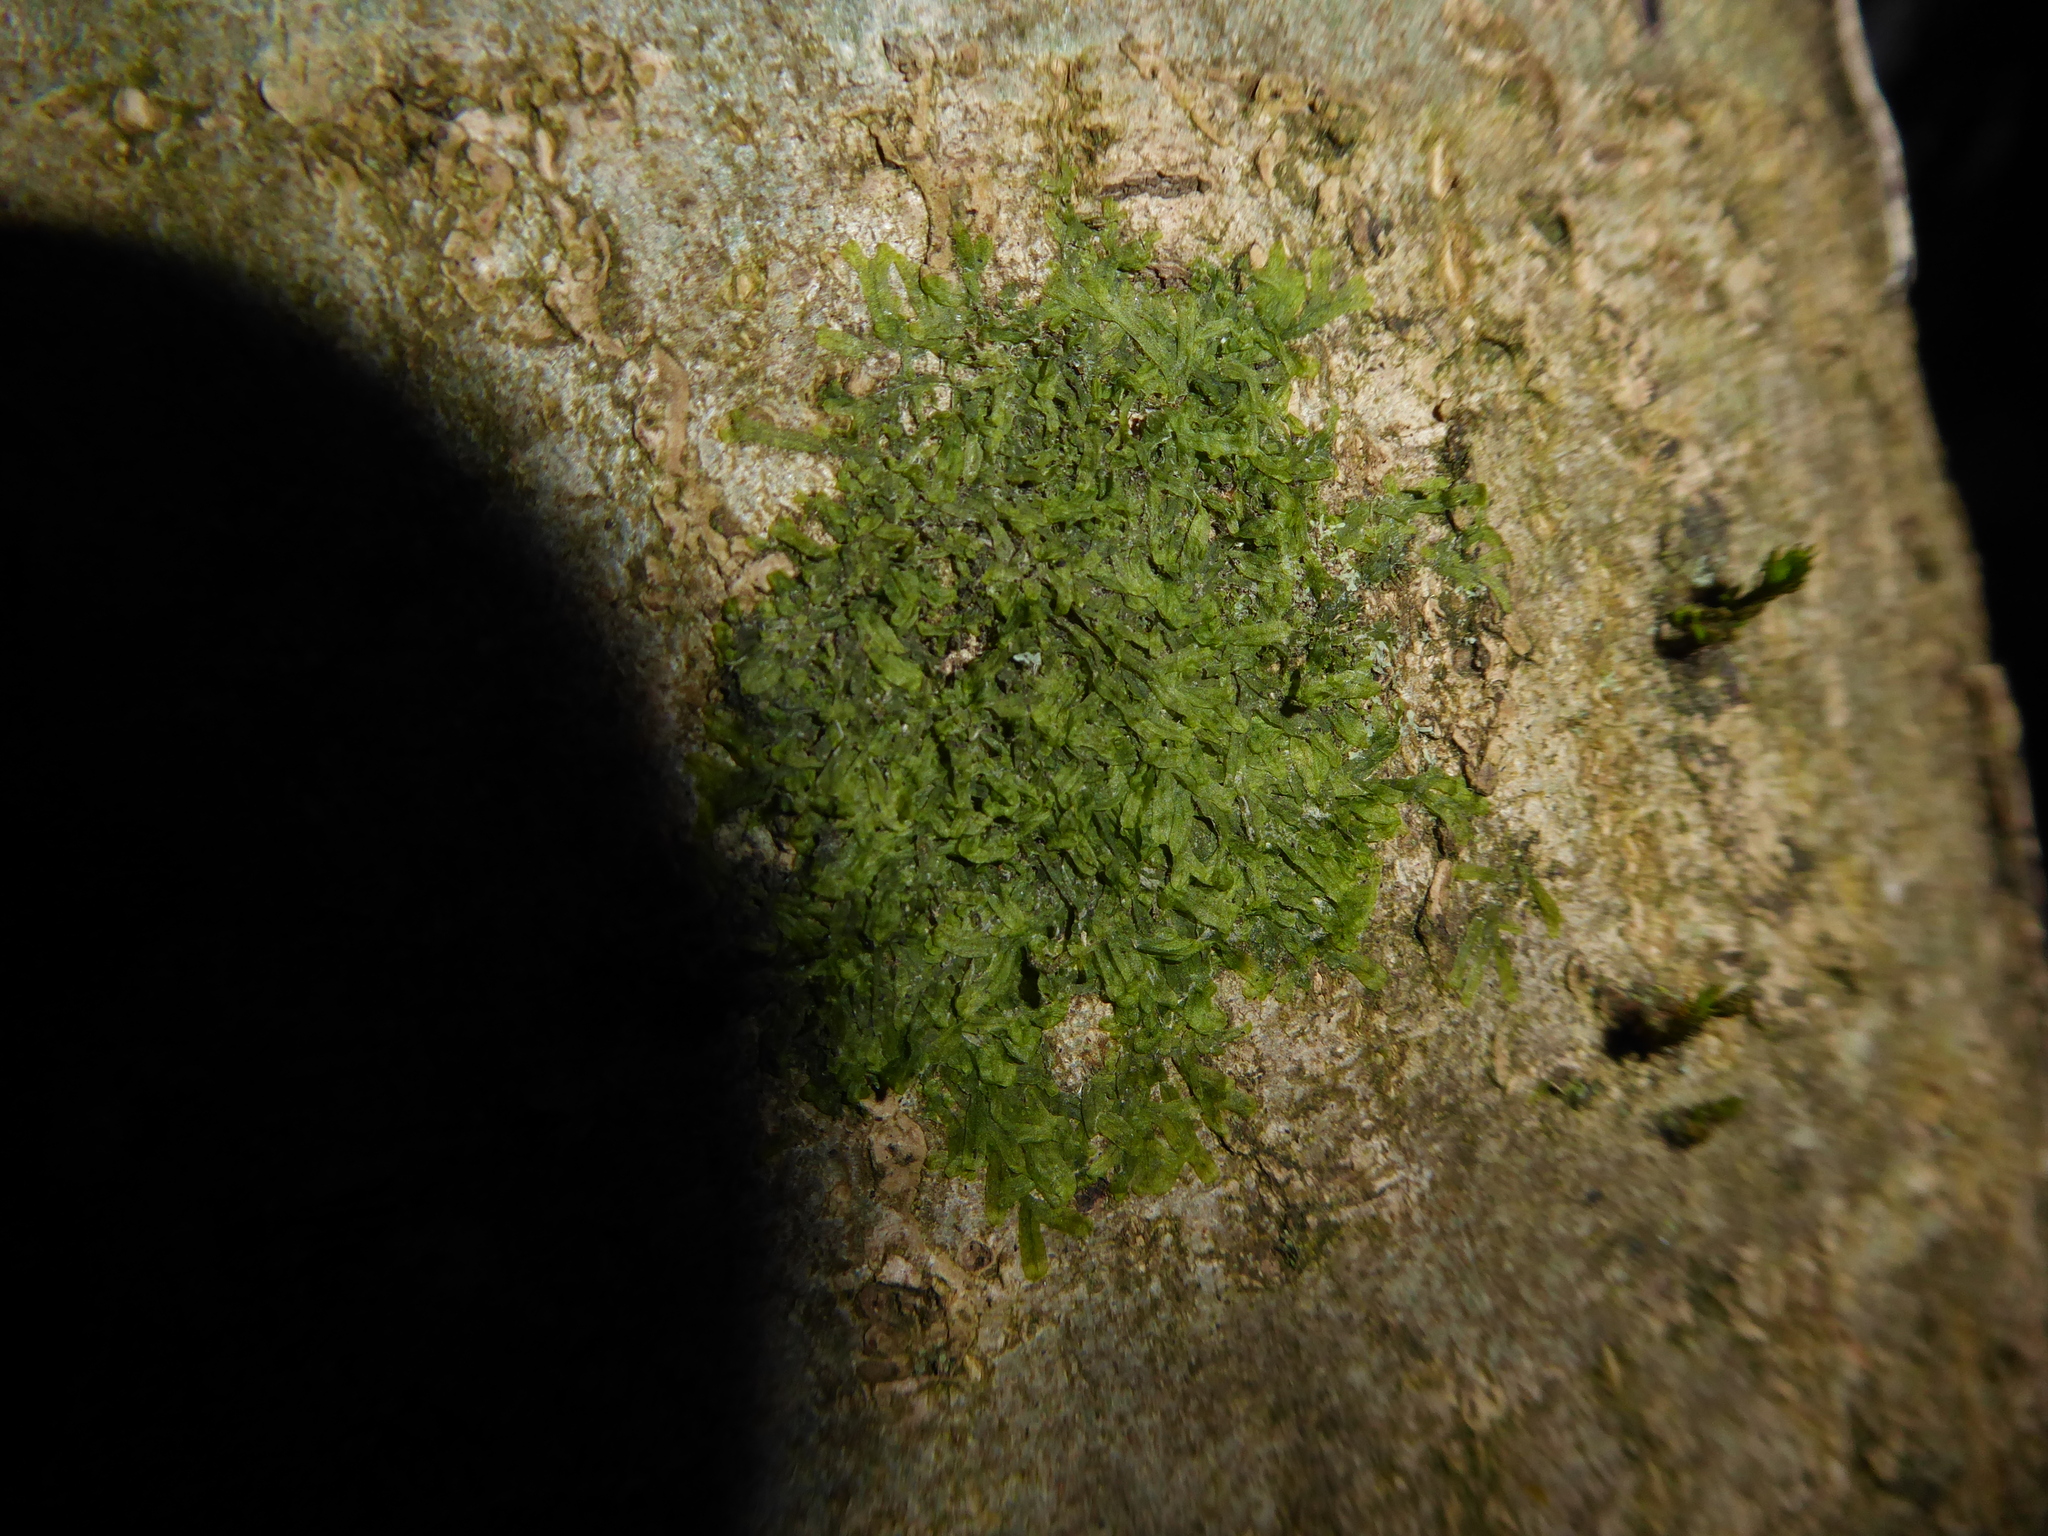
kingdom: Plantae
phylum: Marchantiophyta
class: Jungermanniopsida
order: Metzgeriales
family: Metzgeriaceae
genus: Metzgeria
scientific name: Metzgeria furcata
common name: Forked veilwort
